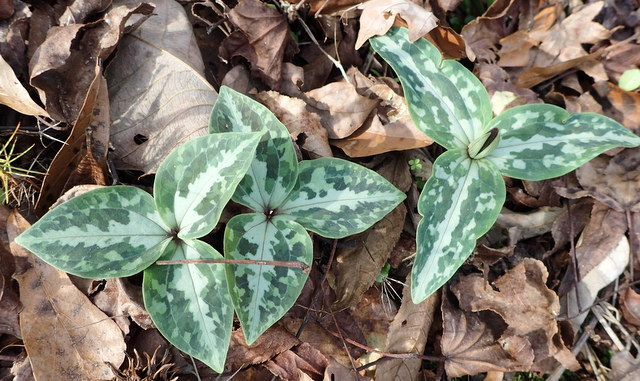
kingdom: Plantae
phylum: Tracheophyta
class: Liliopsida
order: Liliales
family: Melanthiaceae
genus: Trillium
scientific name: Trillium underwoodii
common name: Longbract wakerobin
